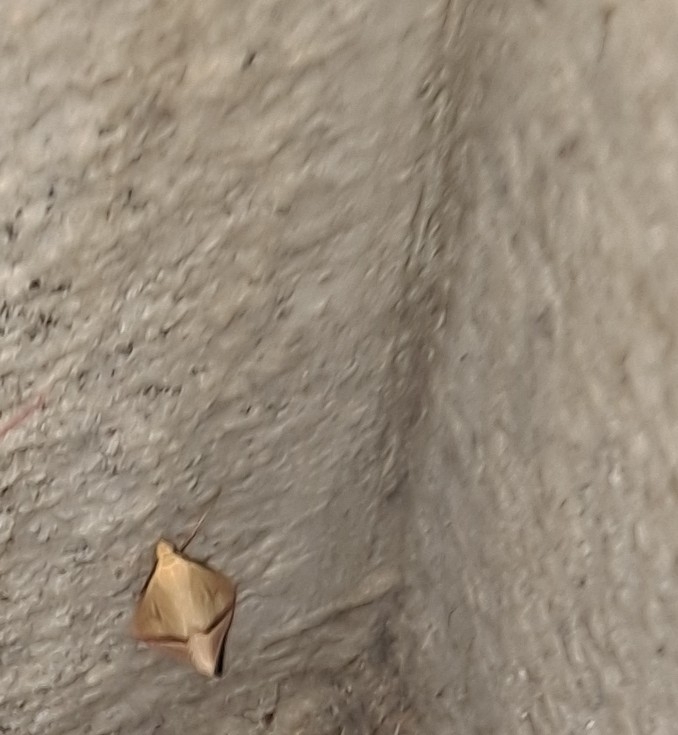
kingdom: Animalia
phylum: Arthropoda
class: Insecta
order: Lepidoptera
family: Geometridae
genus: Rhodometra
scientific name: Rhodometra sacraria
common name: Vestal
